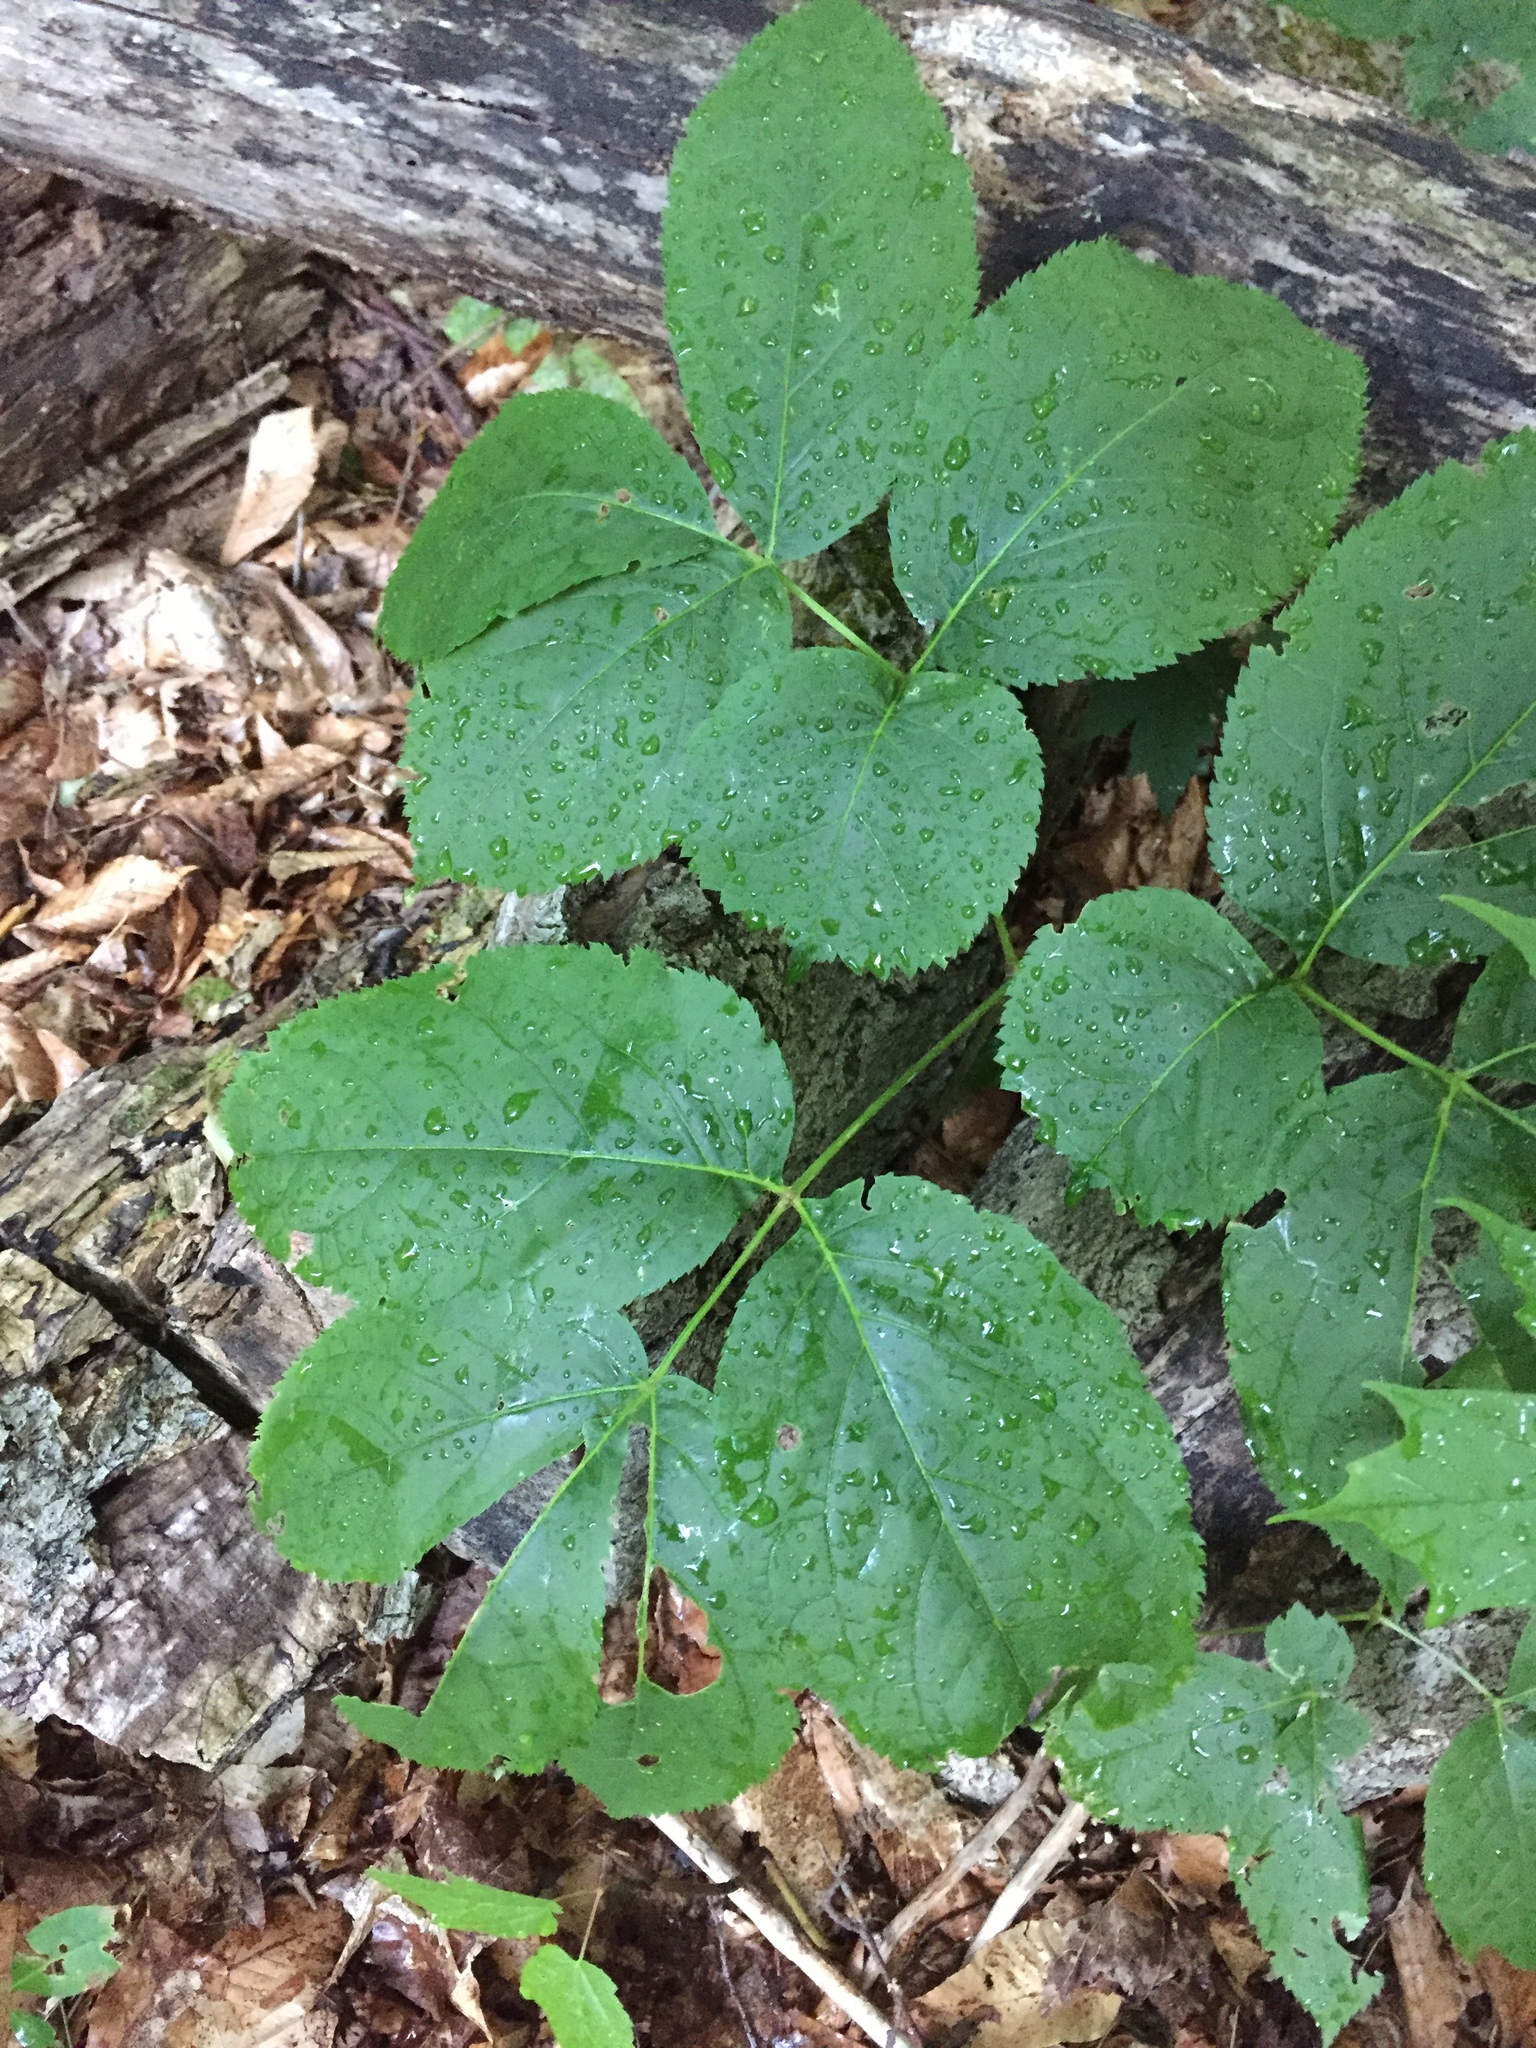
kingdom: Plantae
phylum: Tracheophyta
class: Magnoliopsida
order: Apiales
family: Araliaceae
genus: Aralia
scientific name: Aralia nudicaulis
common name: Wild sarsaparilla
